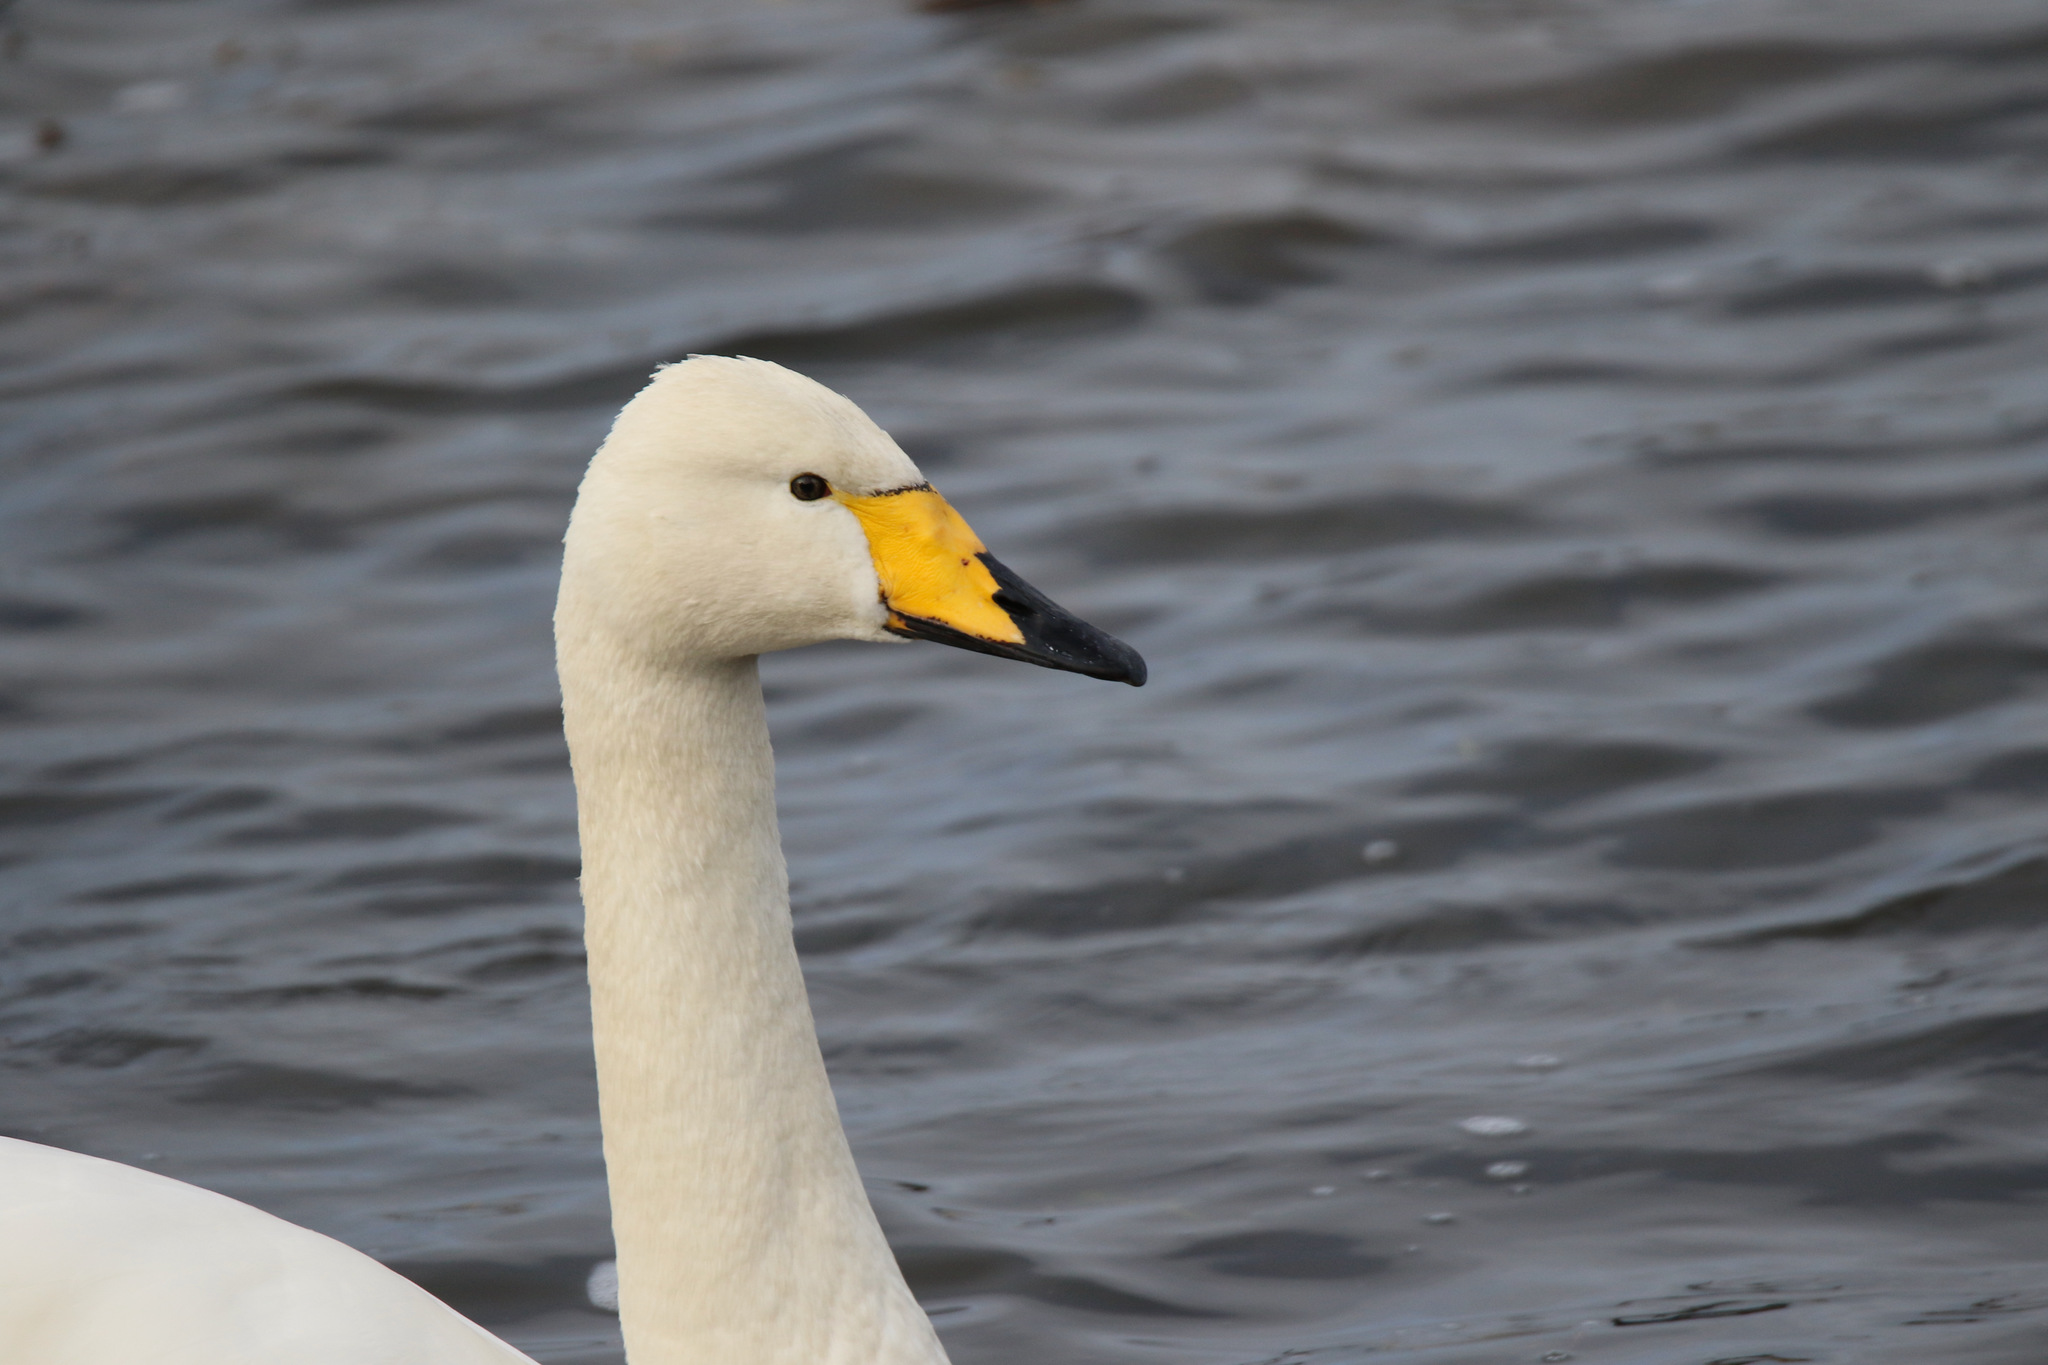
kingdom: Animalia
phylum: Chordata
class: Aves
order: Anseriformes
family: Anatidae
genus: Cygnus
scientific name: Cygnus cygnus
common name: Whooper swan
